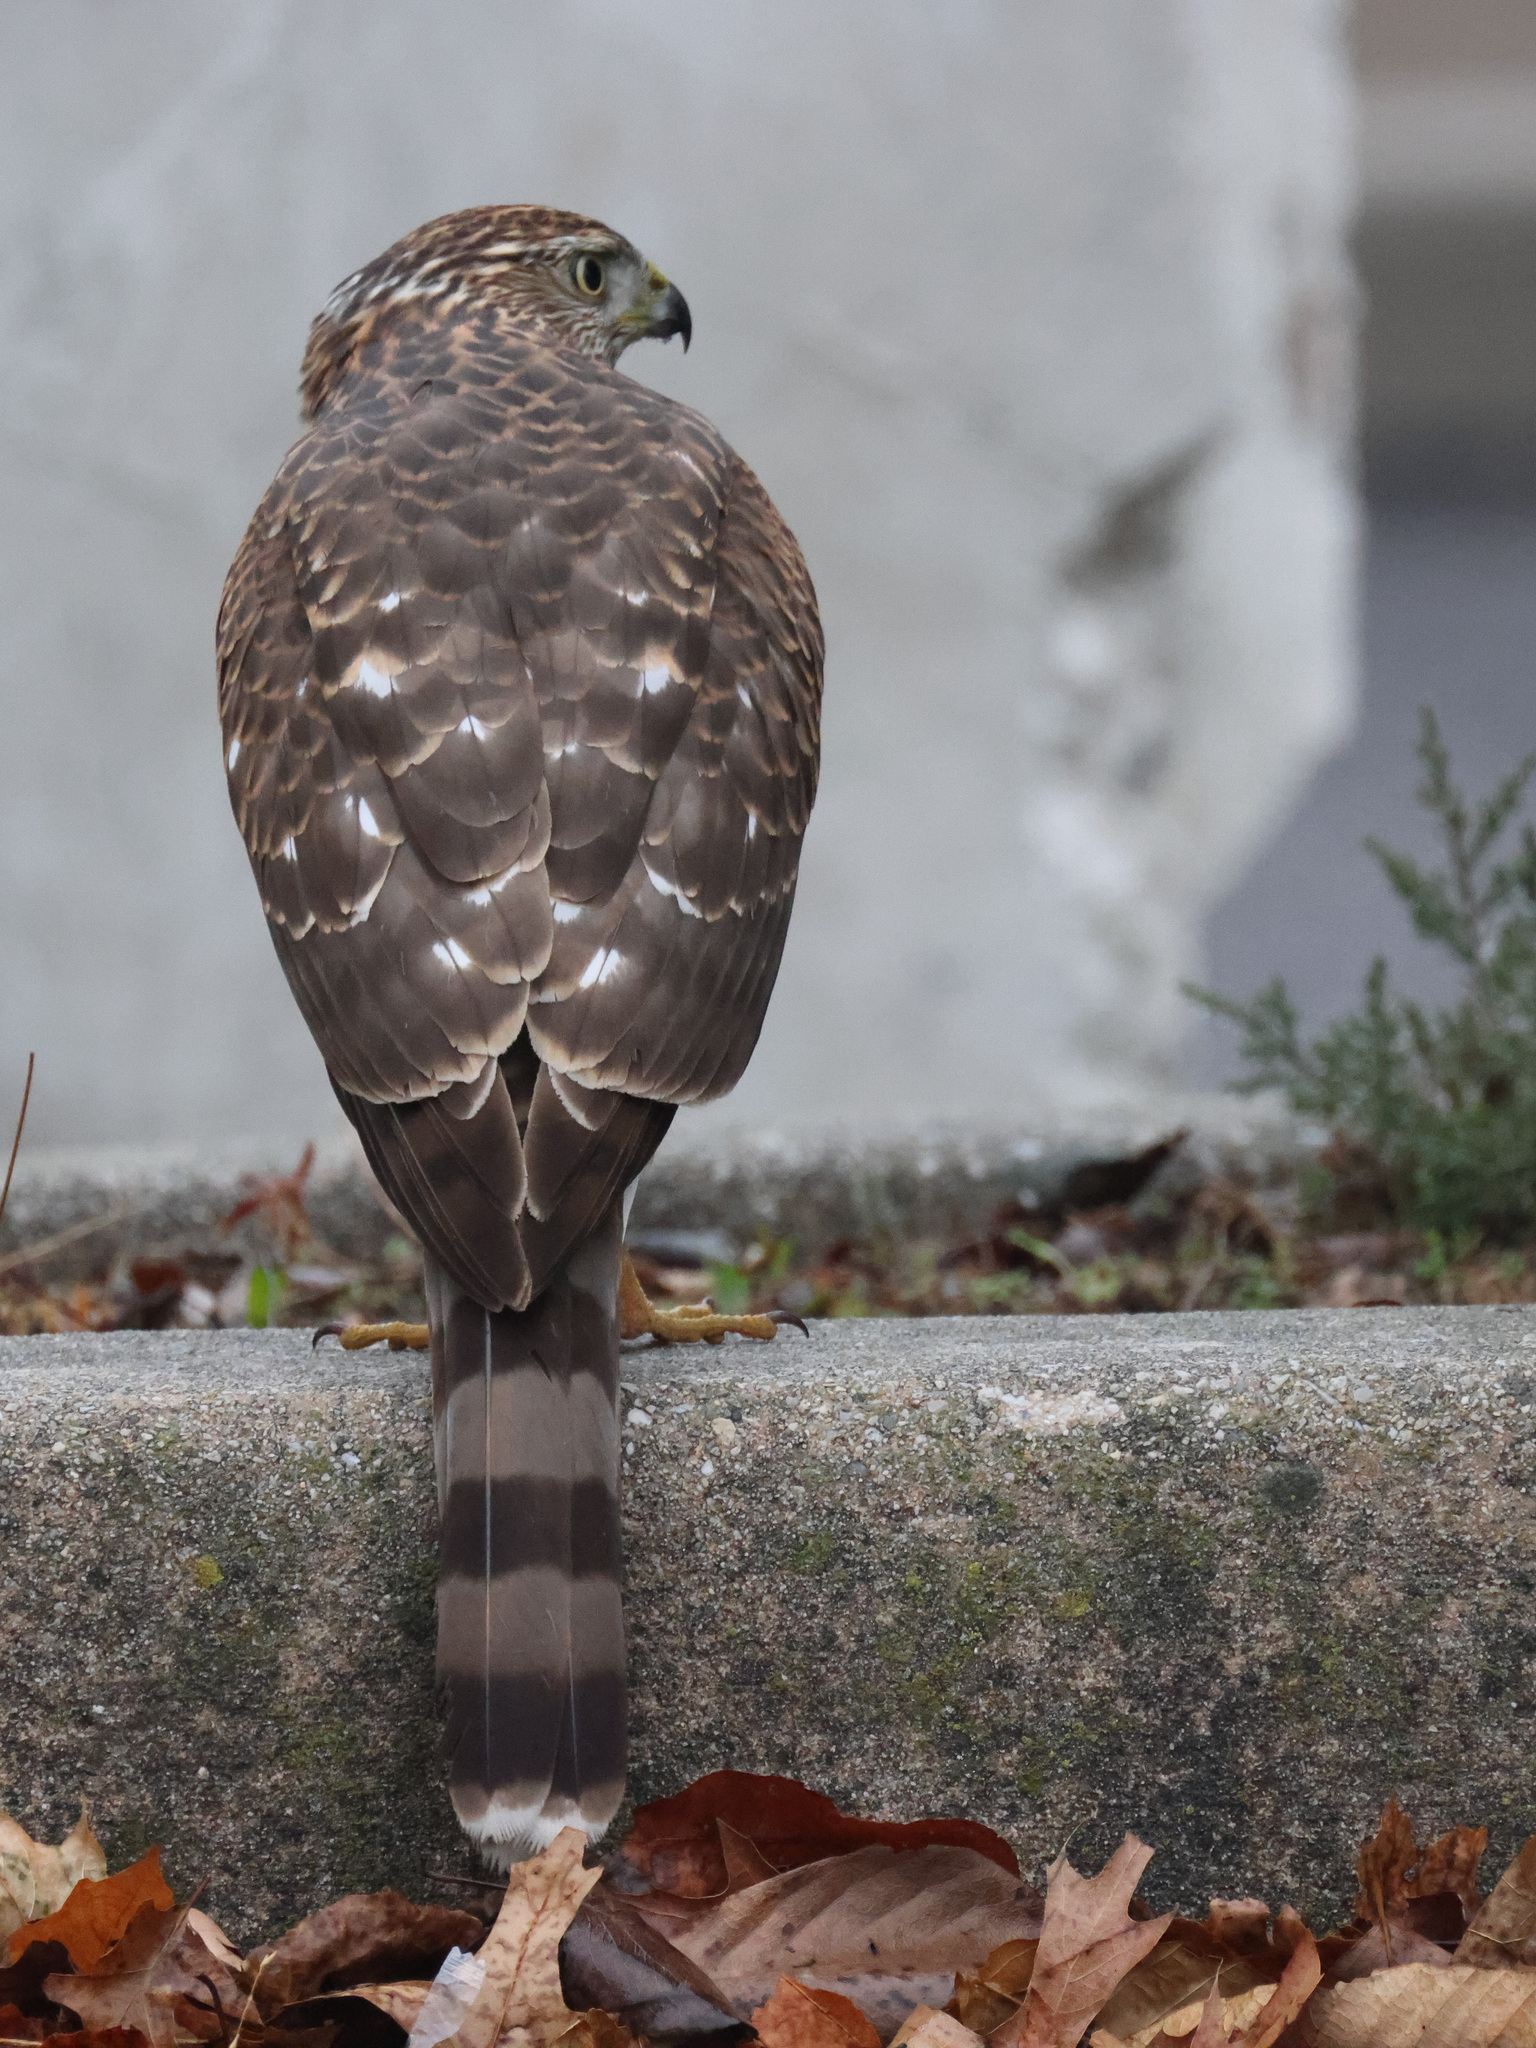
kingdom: Animalia
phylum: Chordata
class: Aves
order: Accipitriformes
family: Accipitridae
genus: Accipiter
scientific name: Accipiter cooperii
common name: Cooper's hawk
